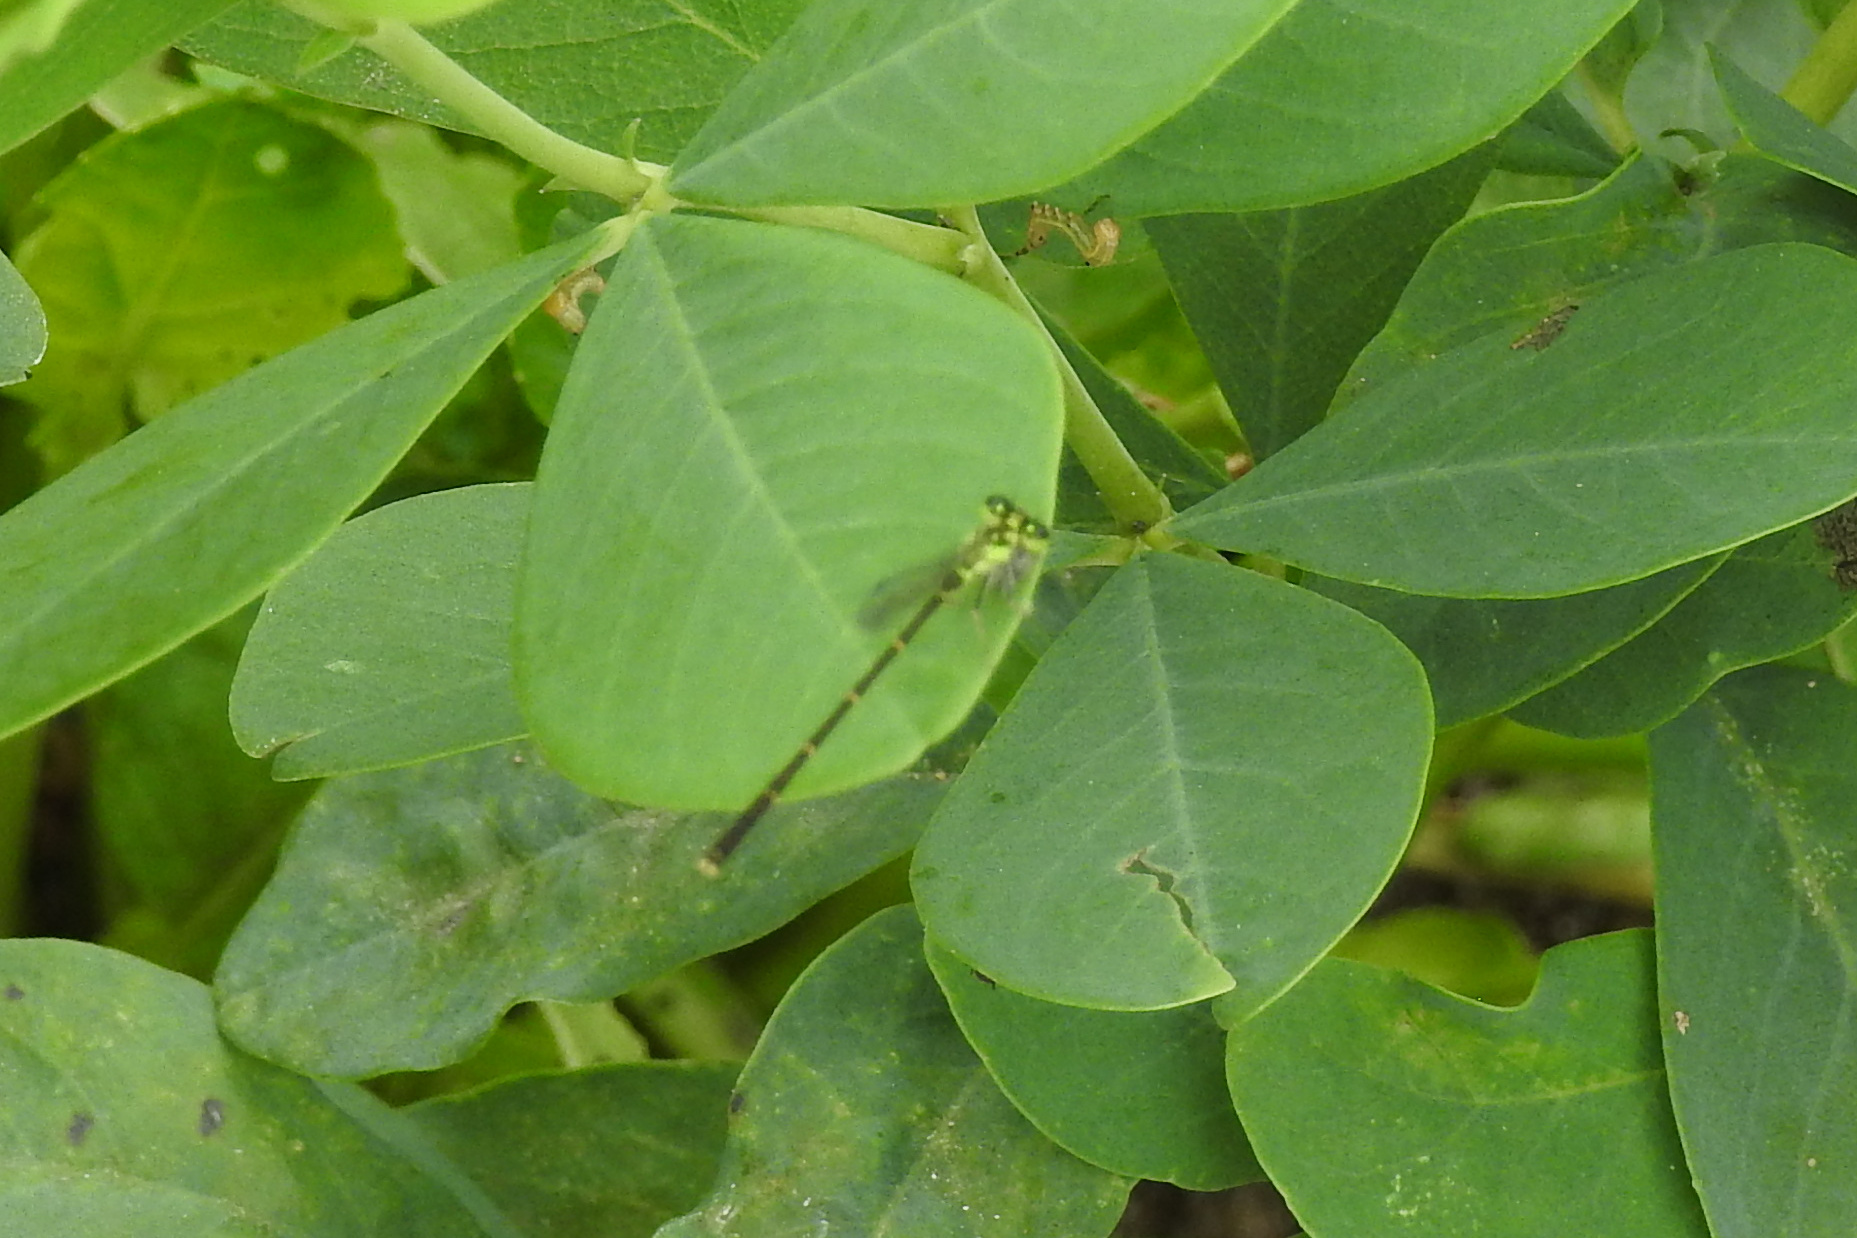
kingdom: Animalia
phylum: Arthropoda
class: Insecta
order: Odonata
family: Coenagrionidae
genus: Ischnura
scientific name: Ischnura posita
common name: Fragile forktail
